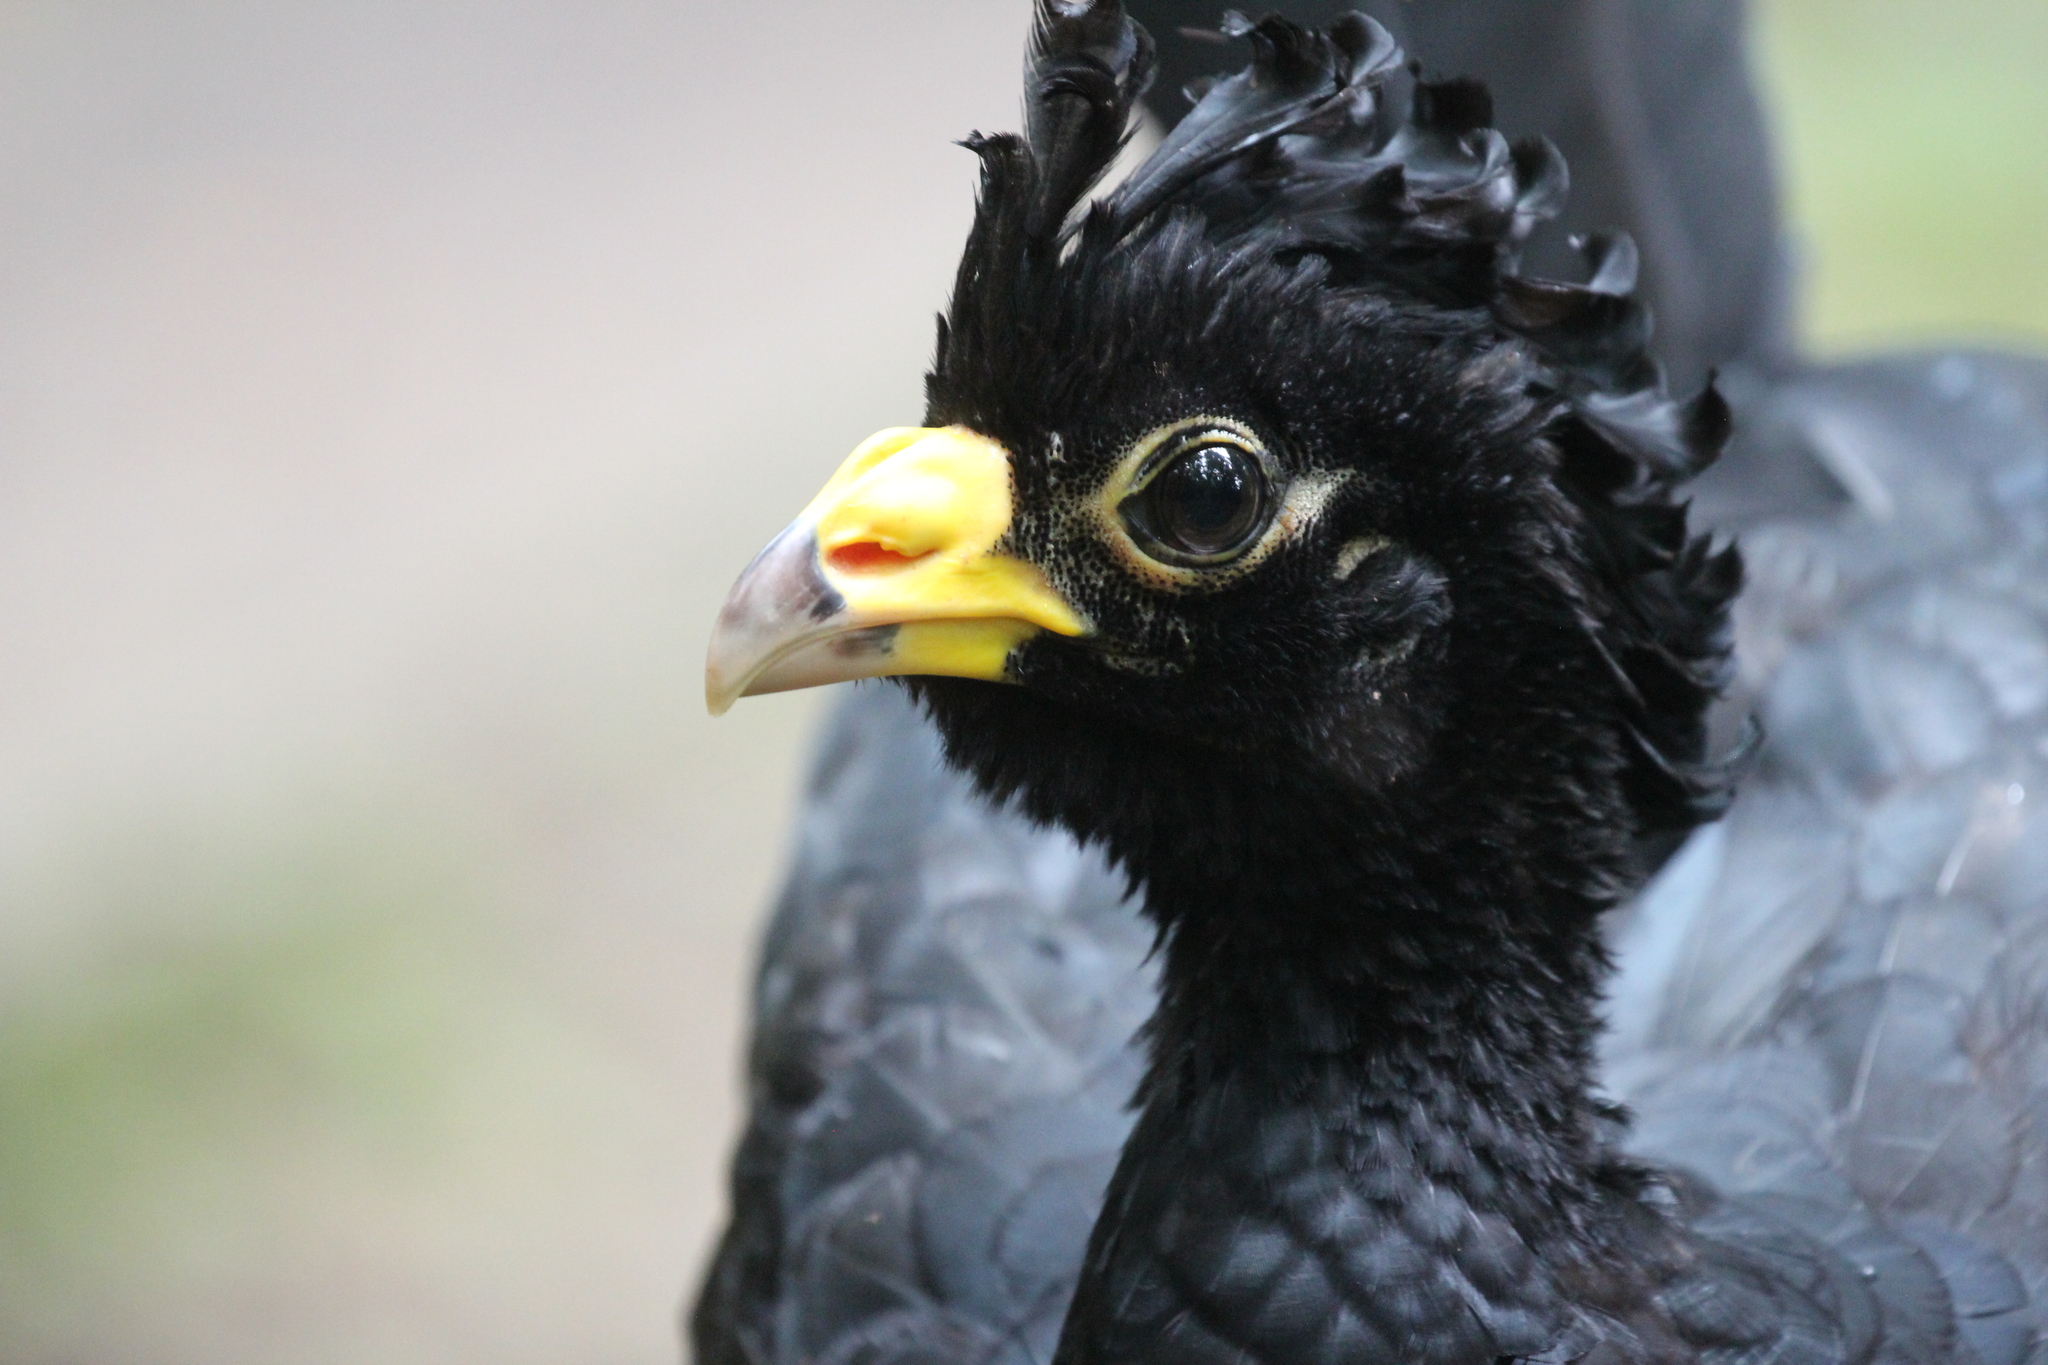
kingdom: Animalia
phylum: Chordata
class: Aves
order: Galliformes
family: Cracidae
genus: Crax
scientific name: Crax rubra
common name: Great curassow
